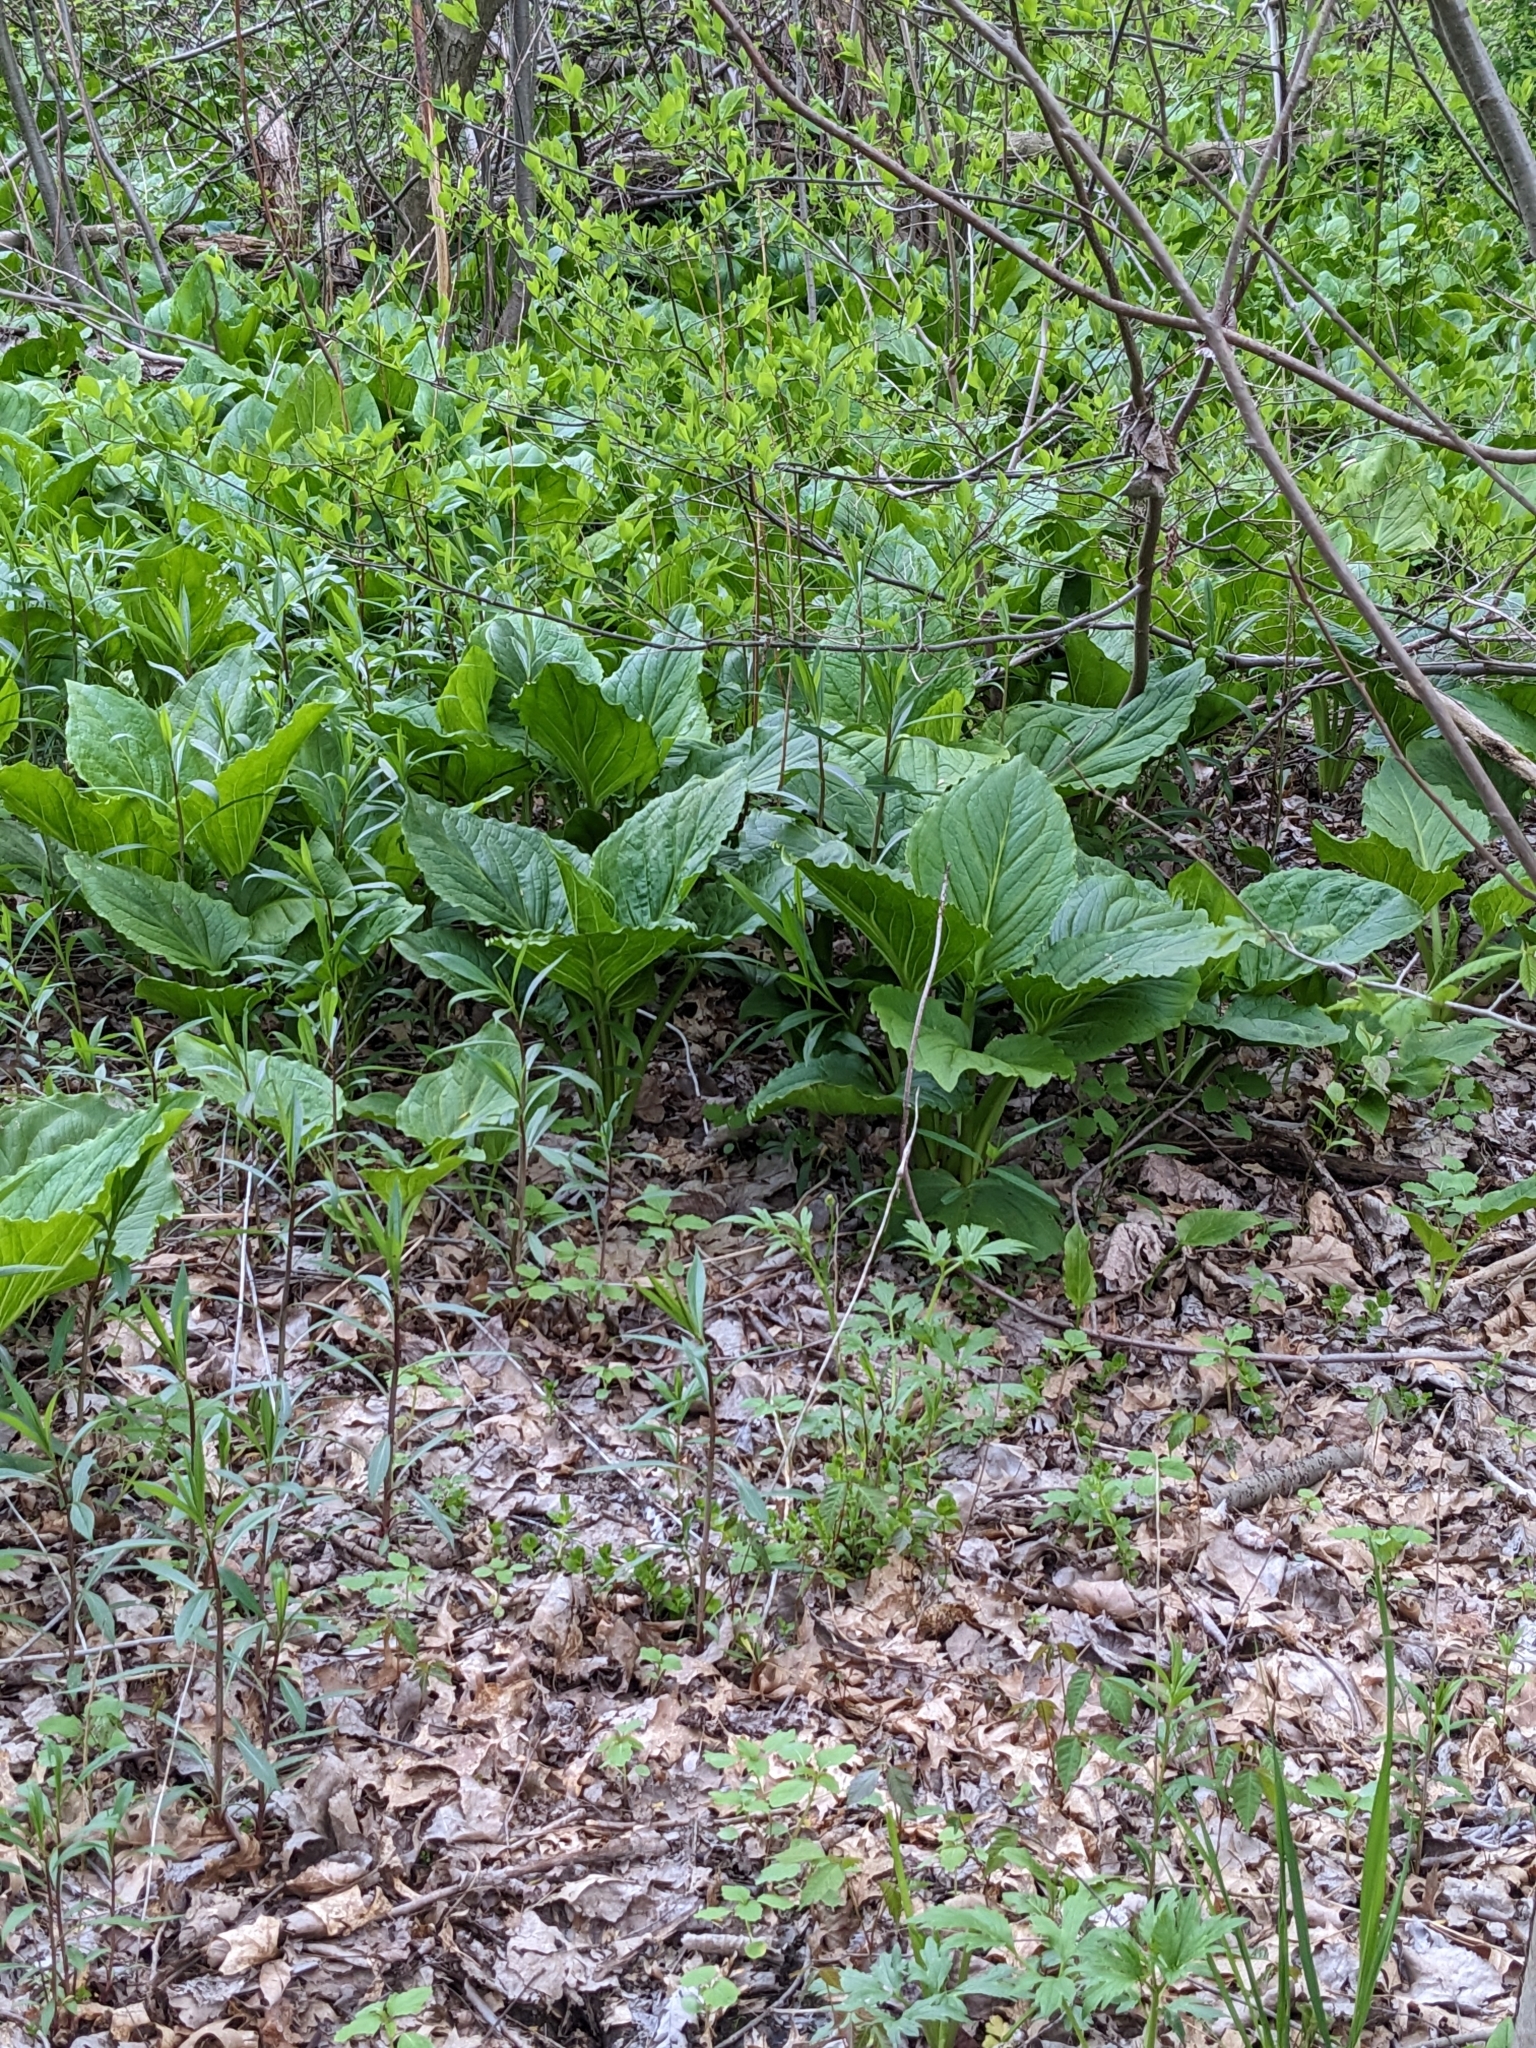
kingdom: Plantae
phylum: Tracheophyta
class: Liliopsida
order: Alismatales
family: Araceae
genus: Symplocarpus
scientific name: Symplocarpus foetidus
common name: Eastern skunk cabbage
